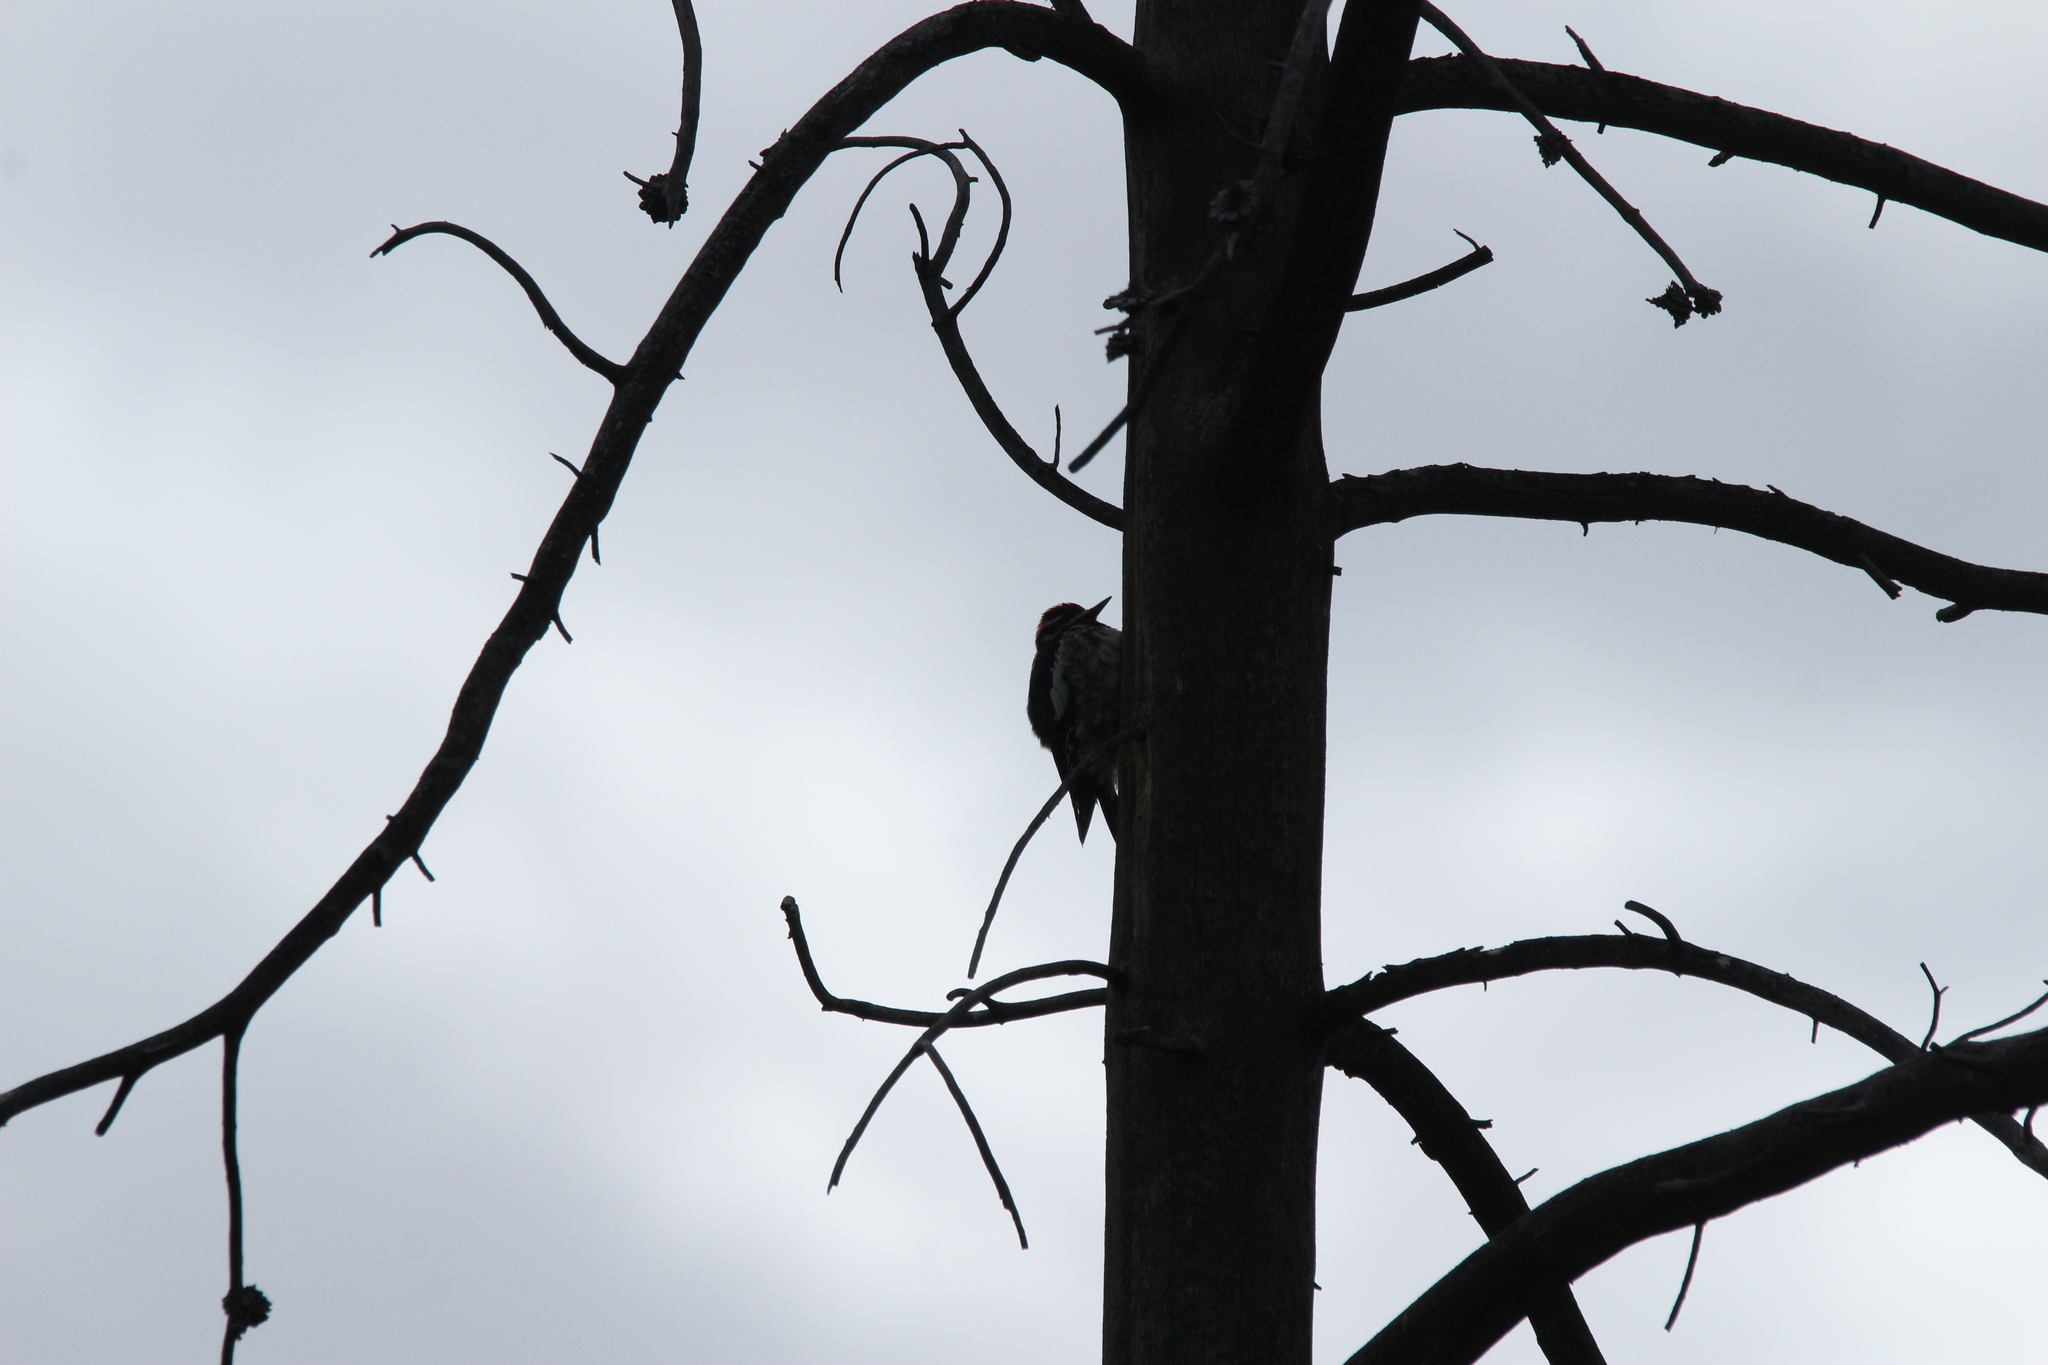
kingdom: Animalia
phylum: Chordata
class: Aves
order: Piciformes
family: Picidae
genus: Sphyrapicus
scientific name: Sphyrapicus nuchalis
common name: Red-naped sapsucker
